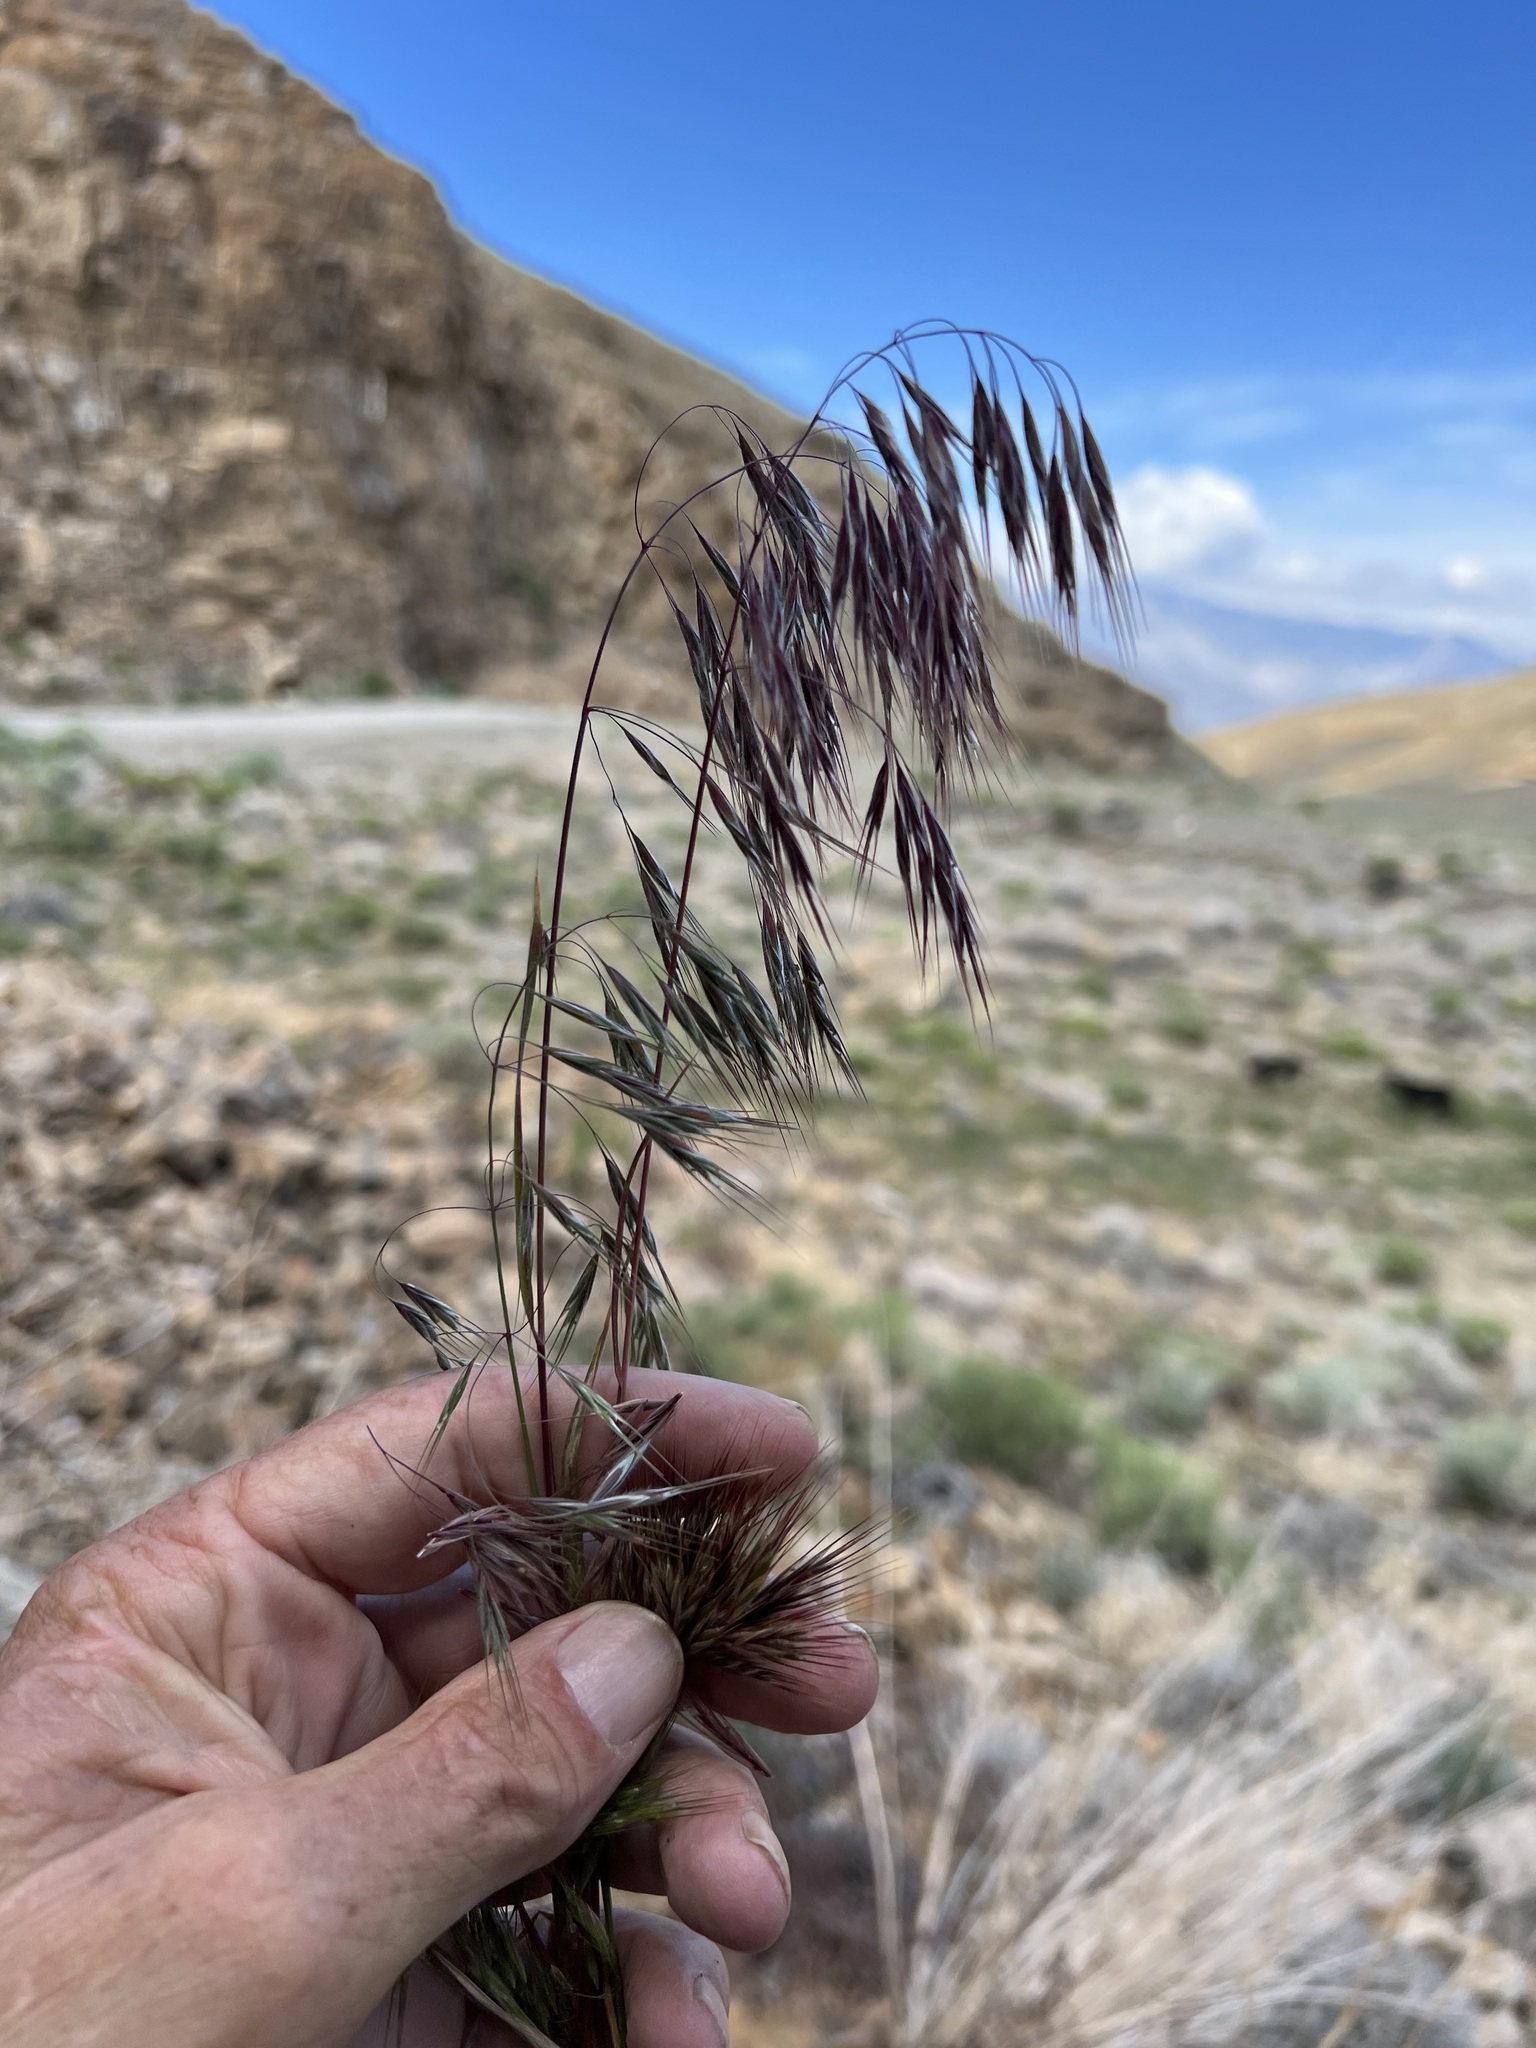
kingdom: Plantae
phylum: Tracheophyta
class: Liliopsida
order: Poales
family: Poaceae
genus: Bromus
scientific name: Bromus tectorum
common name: Cheatgrass
